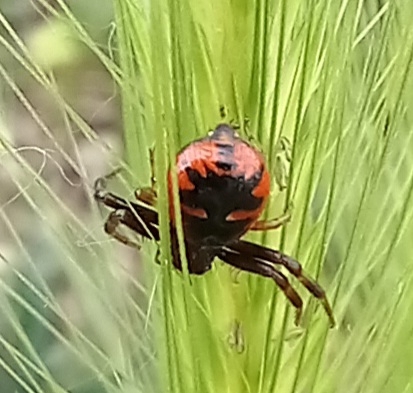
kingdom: Animalia
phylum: Arthropoda
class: Arachnida
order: Araneae
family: Thomisidae
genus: Synema
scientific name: Synema globosum
